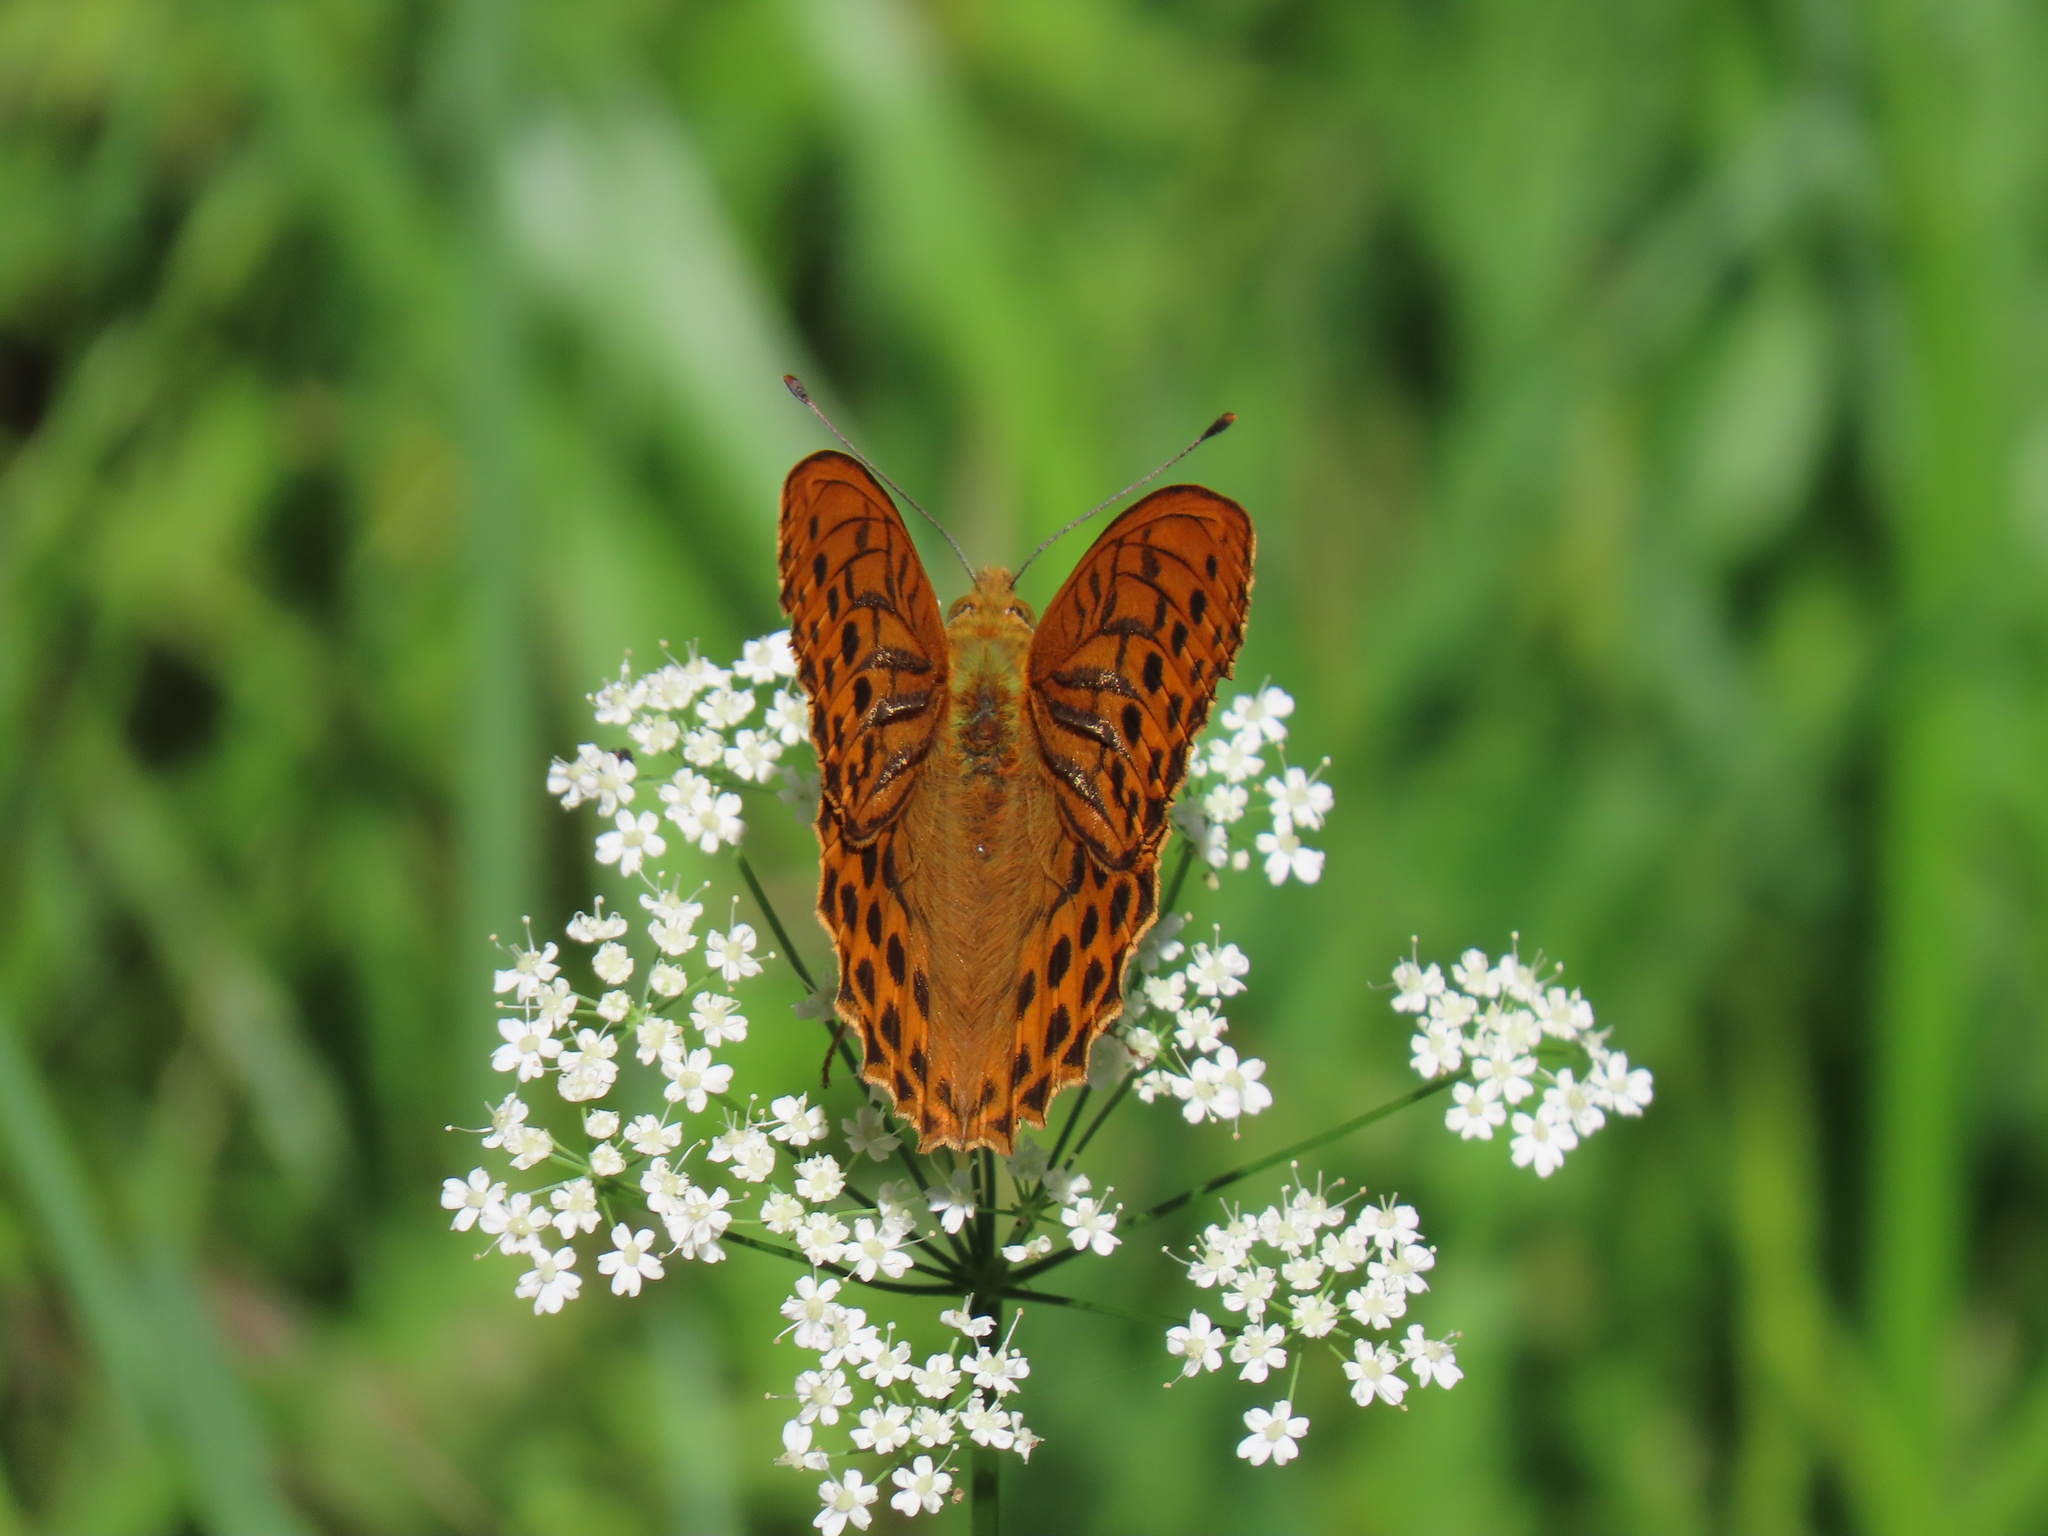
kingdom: Animalia
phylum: Arthropoda
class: Insecta
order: Lepidoptera
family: Nymphalidae
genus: Argynnis
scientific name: Argynnis paphia
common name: Silver-washed fritillary
